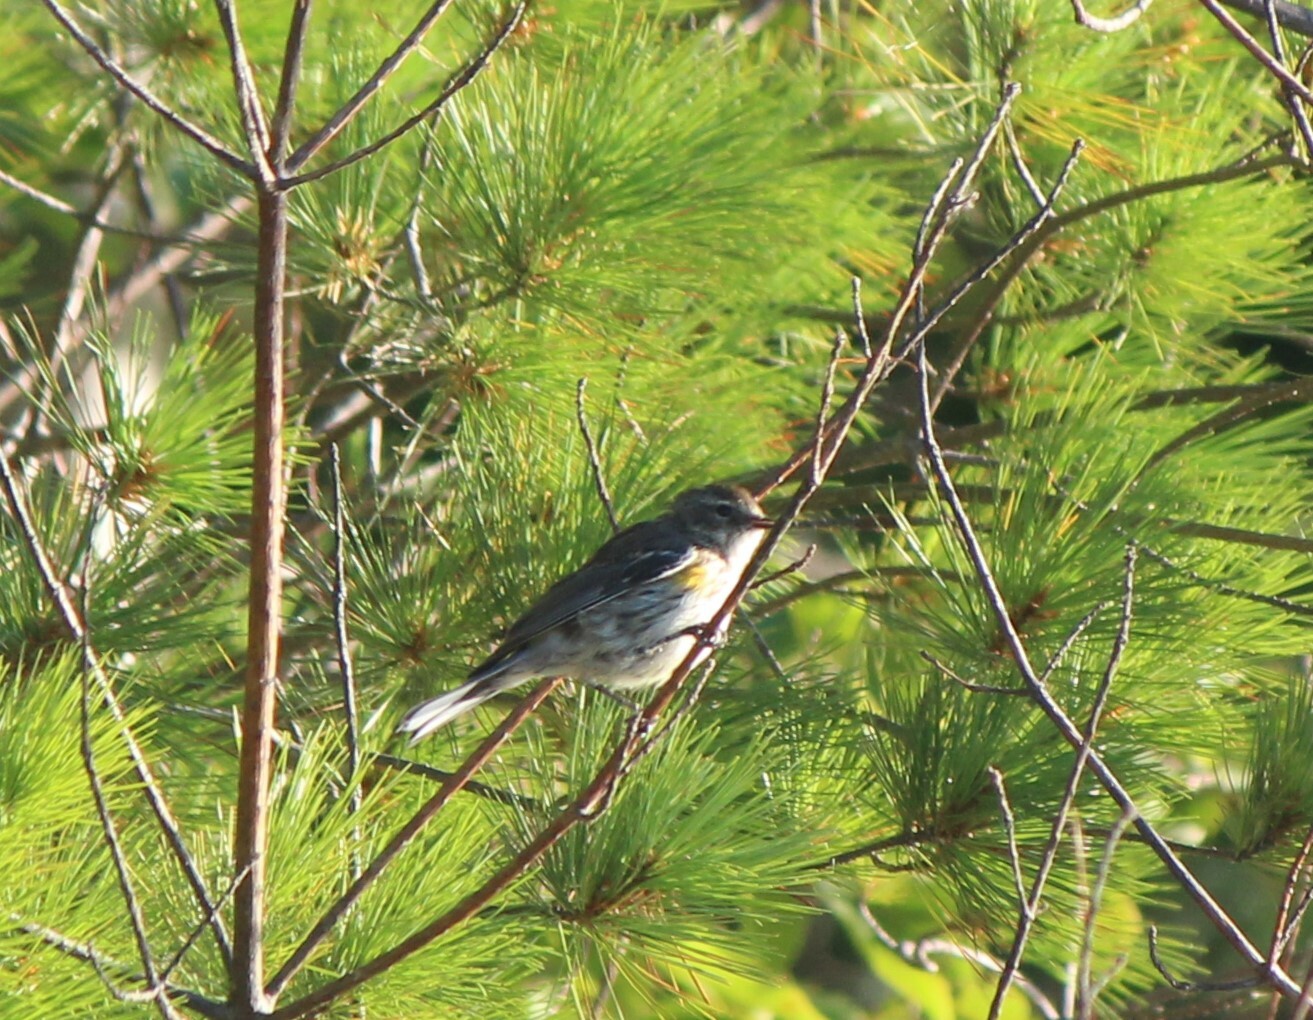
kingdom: Animalia
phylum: Chordata
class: Aves
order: Passeriformes
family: Parulidae
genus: Setophaga
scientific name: Setophaga coronata
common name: Myrtle warbler
